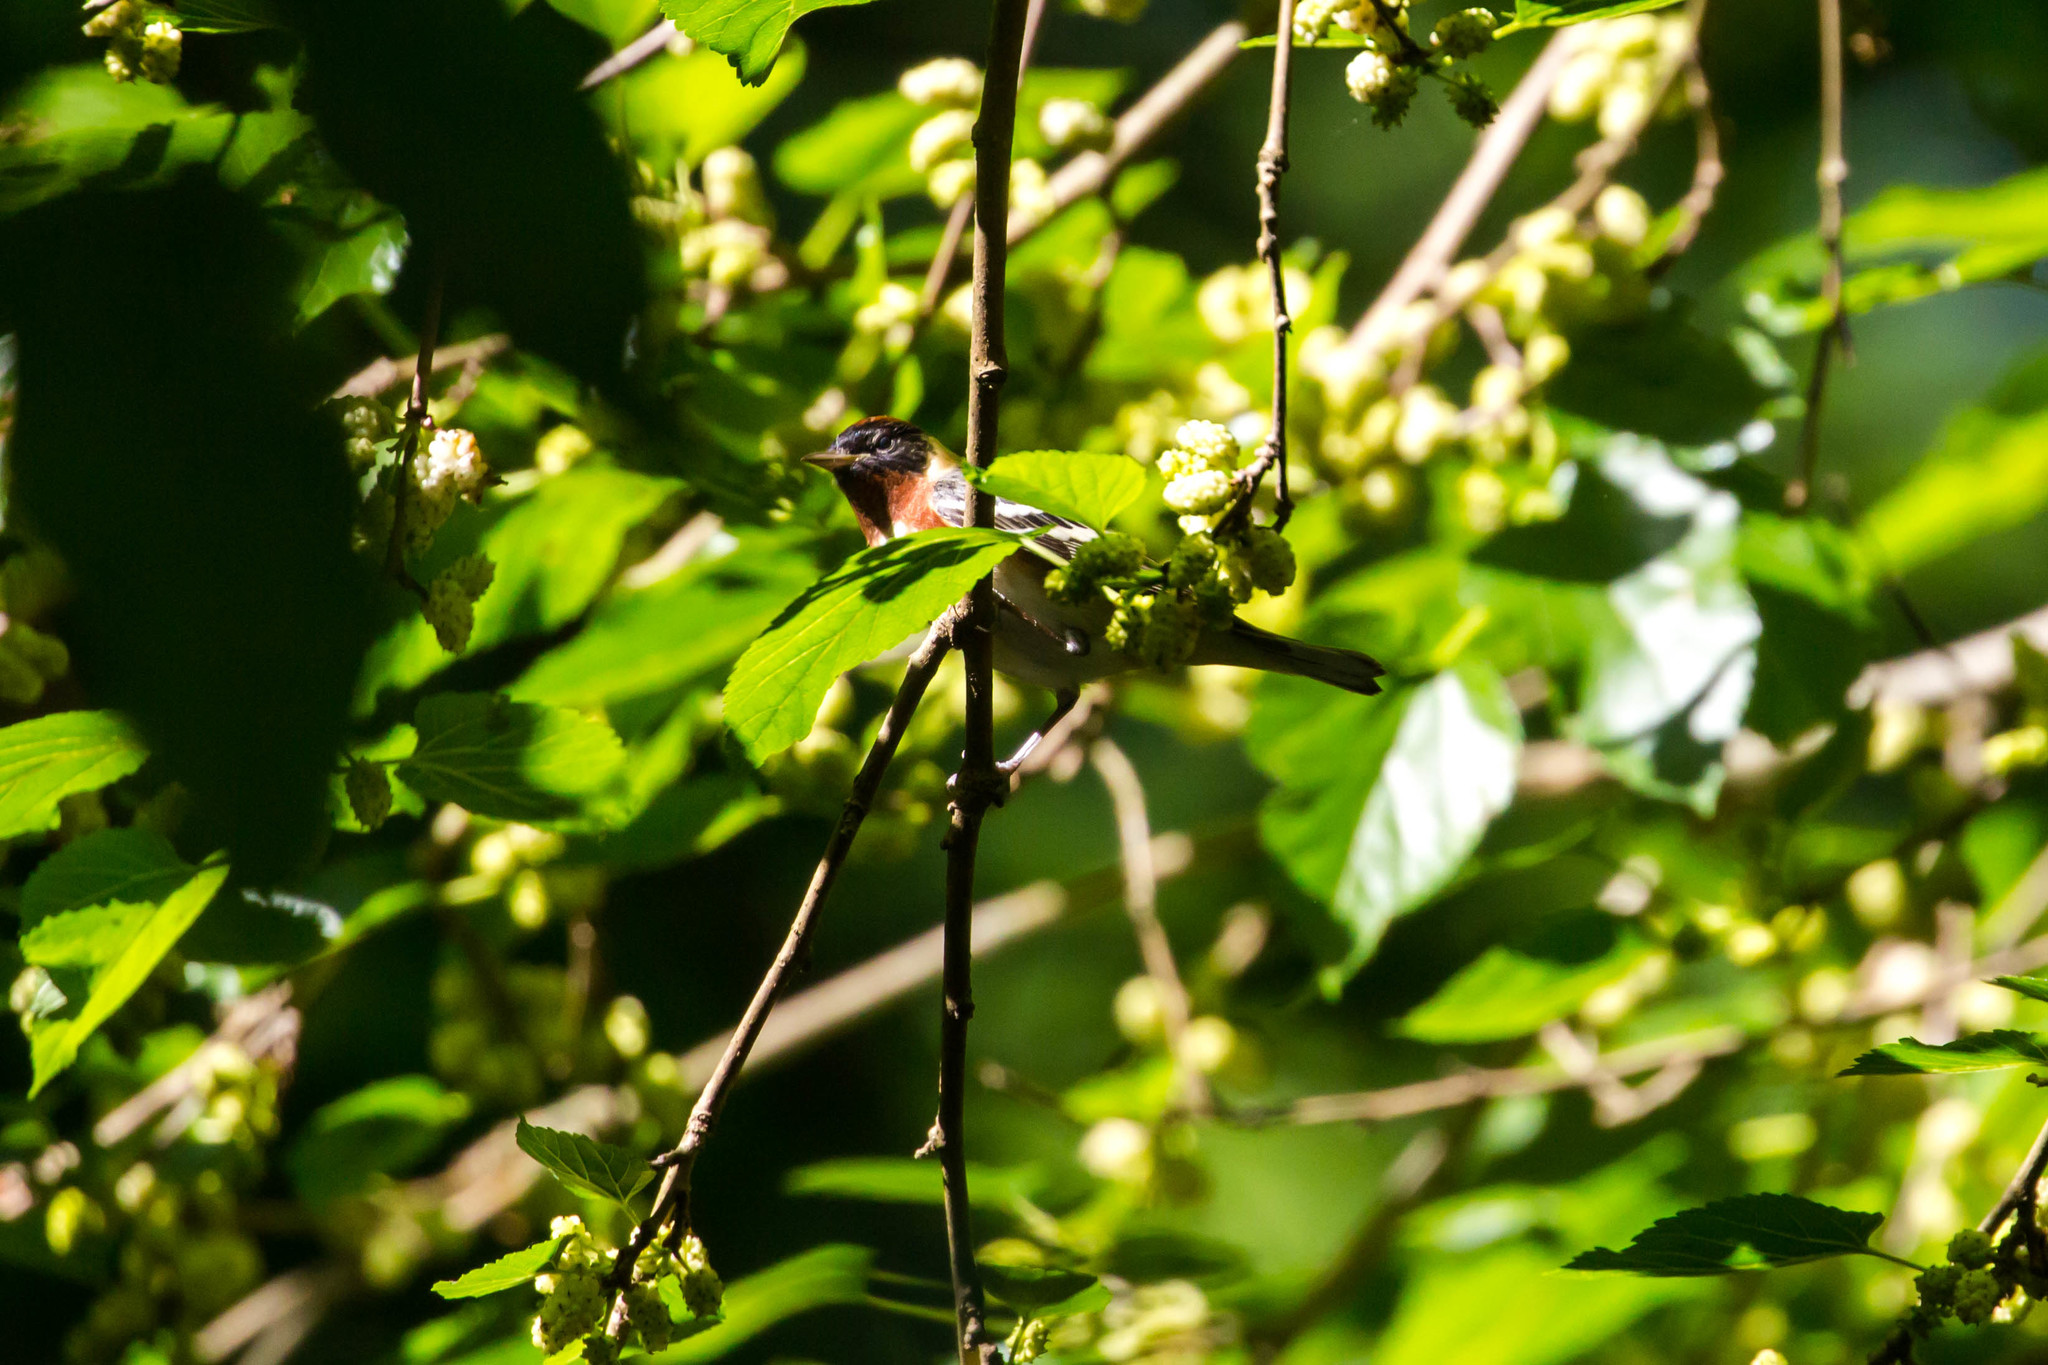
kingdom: Animalia
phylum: Chordata
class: Aves
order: Passeriformes
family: Parulidae
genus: Setophaga
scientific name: Setophaga castanea
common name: Bay-breasted warbler
